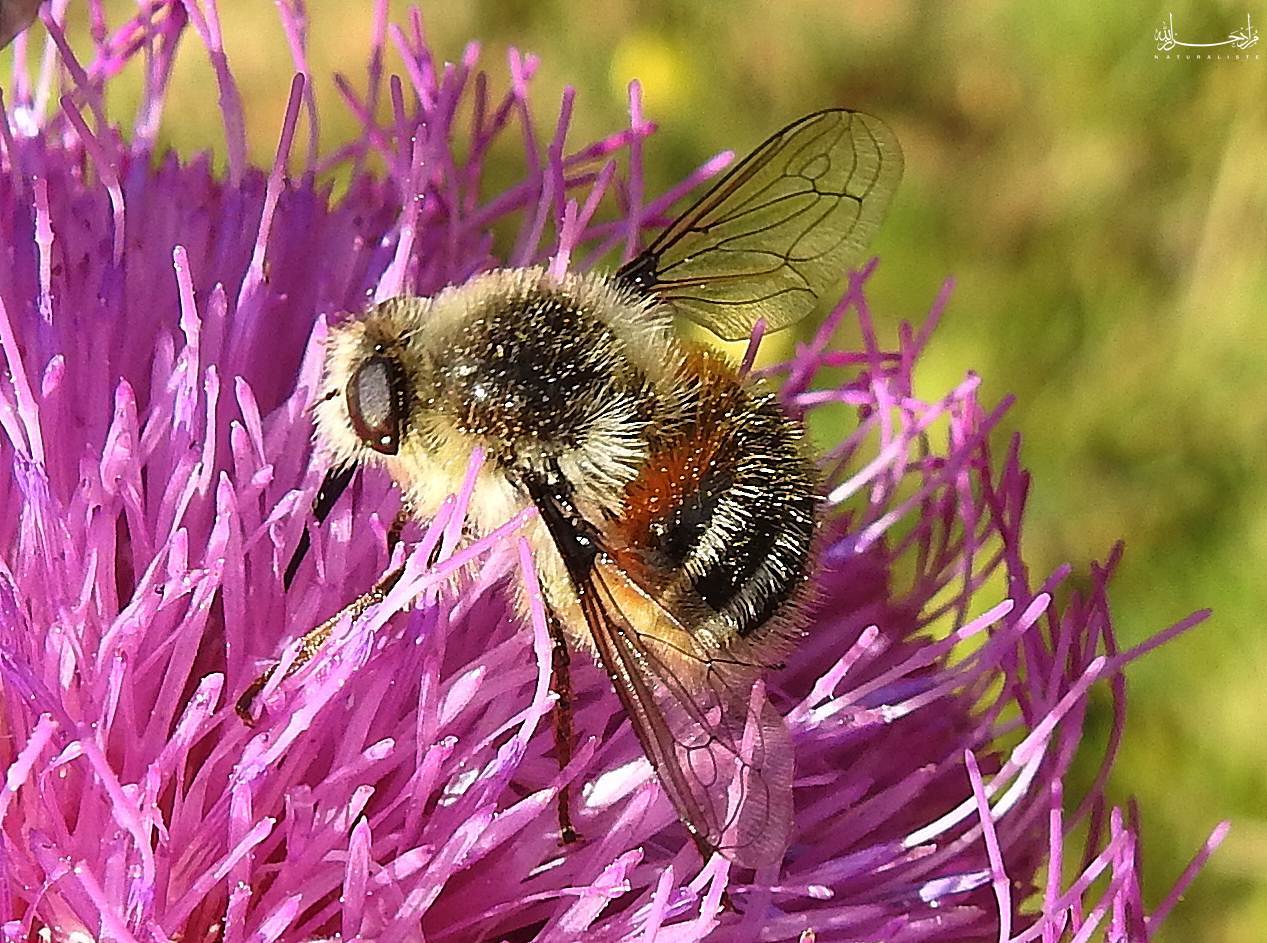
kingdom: Animalia
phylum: Arthropoda
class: Insecta
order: Diptera
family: Nemestrinidae
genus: Fallenia
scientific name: Fallenia fasciata
